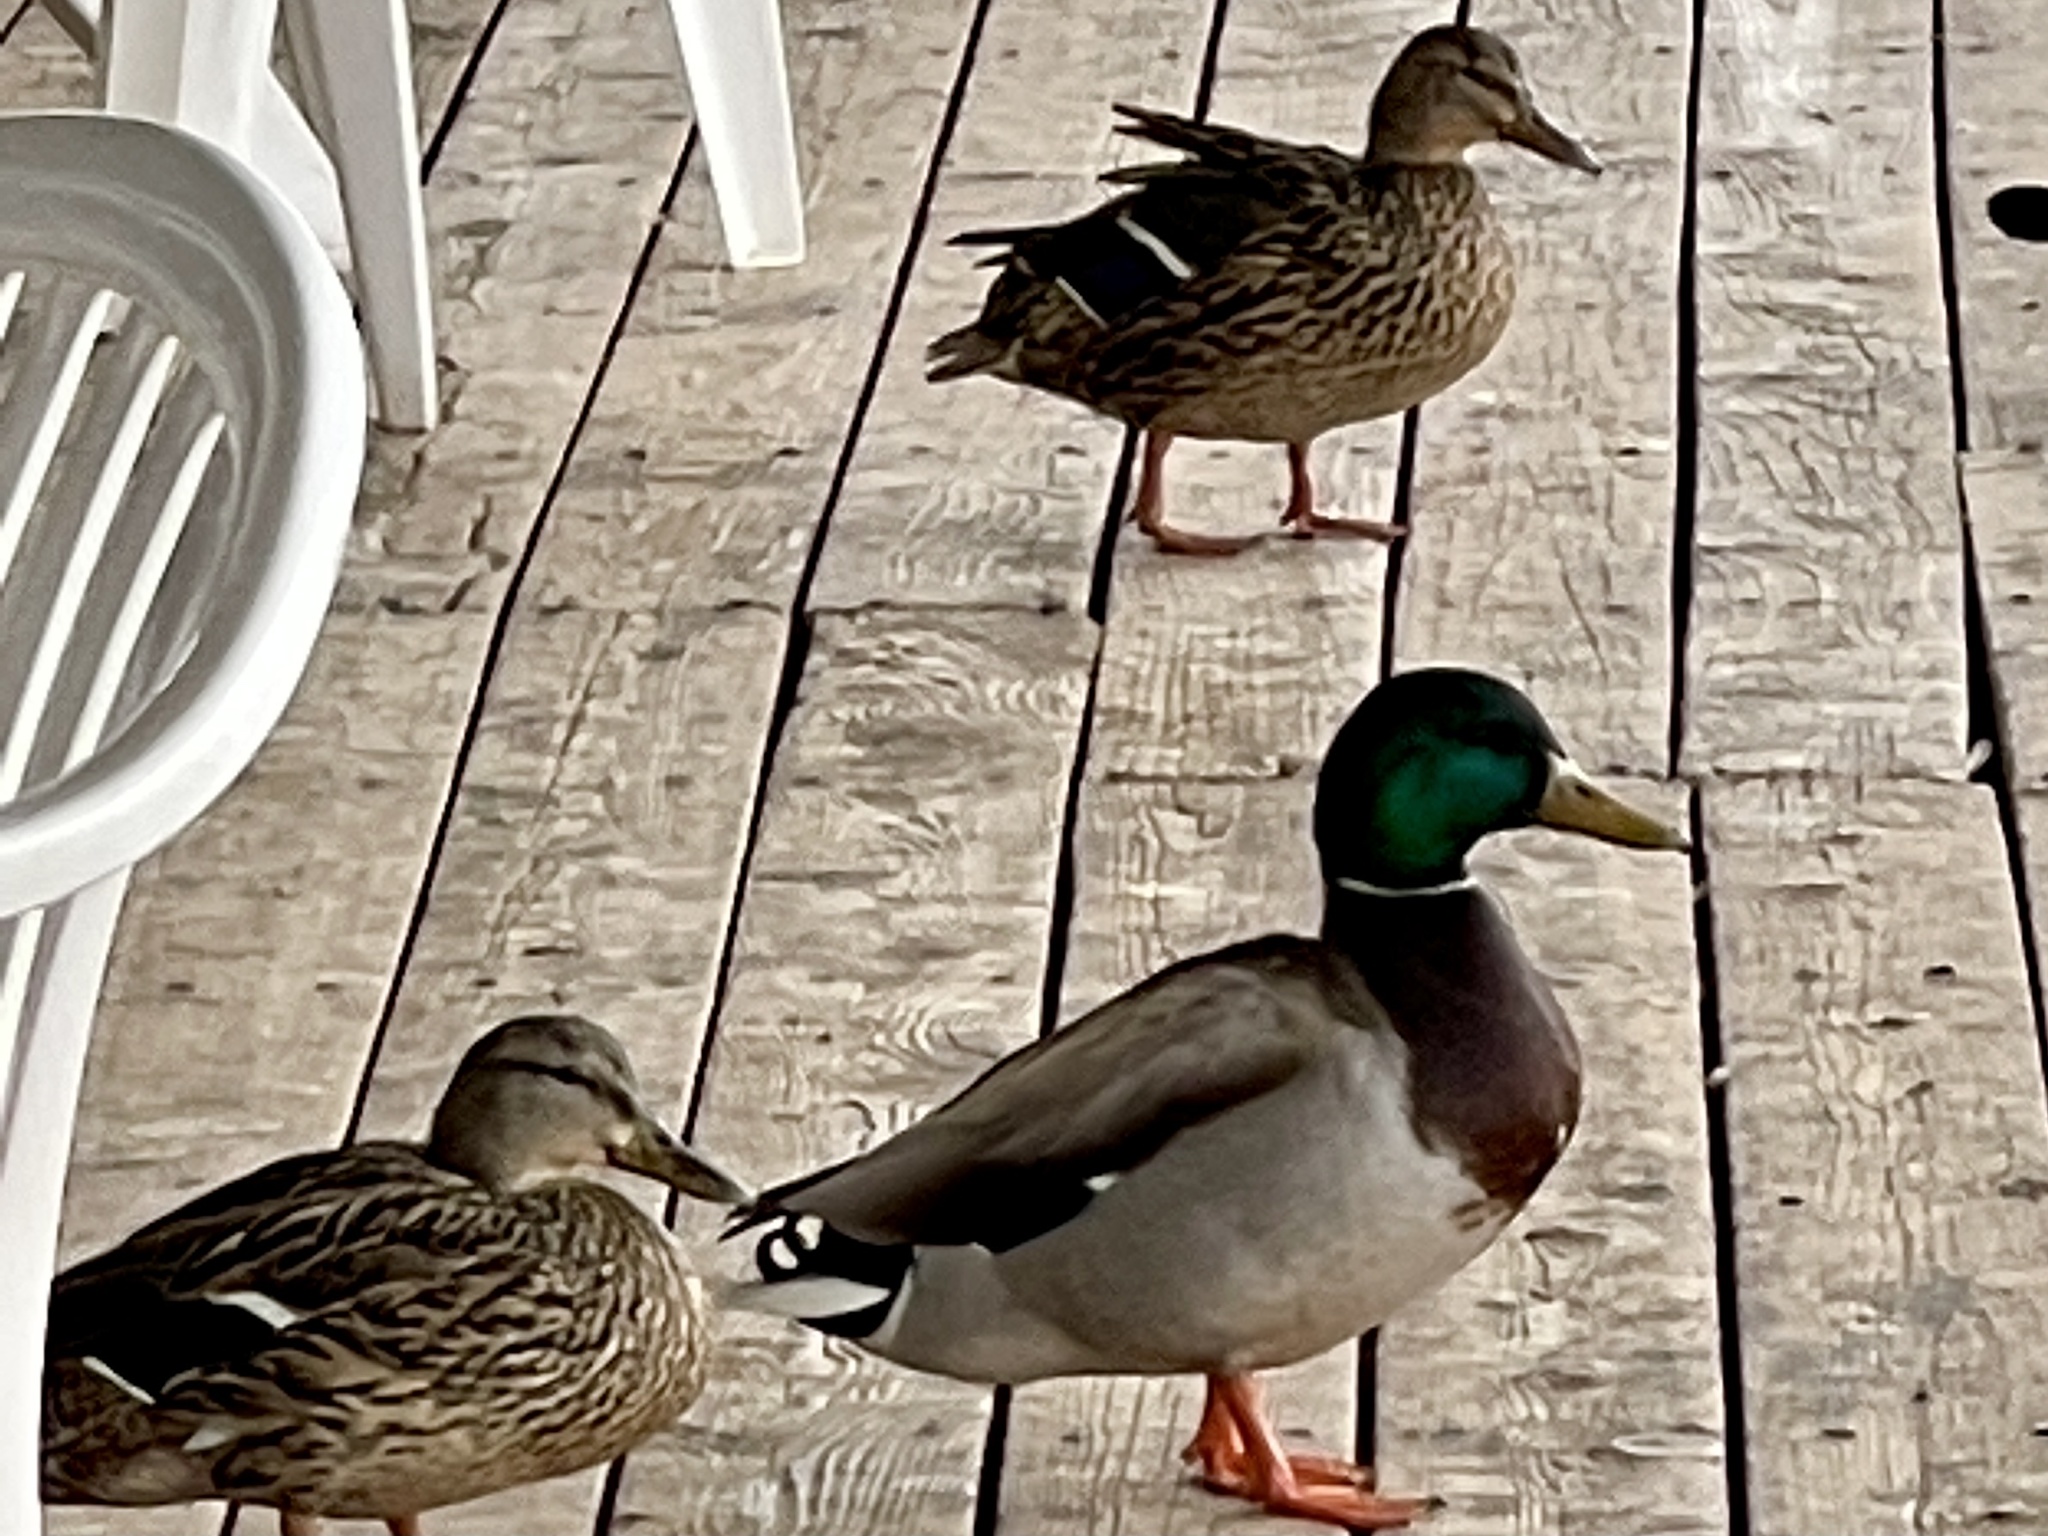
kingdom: Animalia
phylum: Chordata
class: Aves
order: Anseriformes
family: Anatidae
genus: Anas
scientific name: Anas platyrhynchos
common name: Mallard
